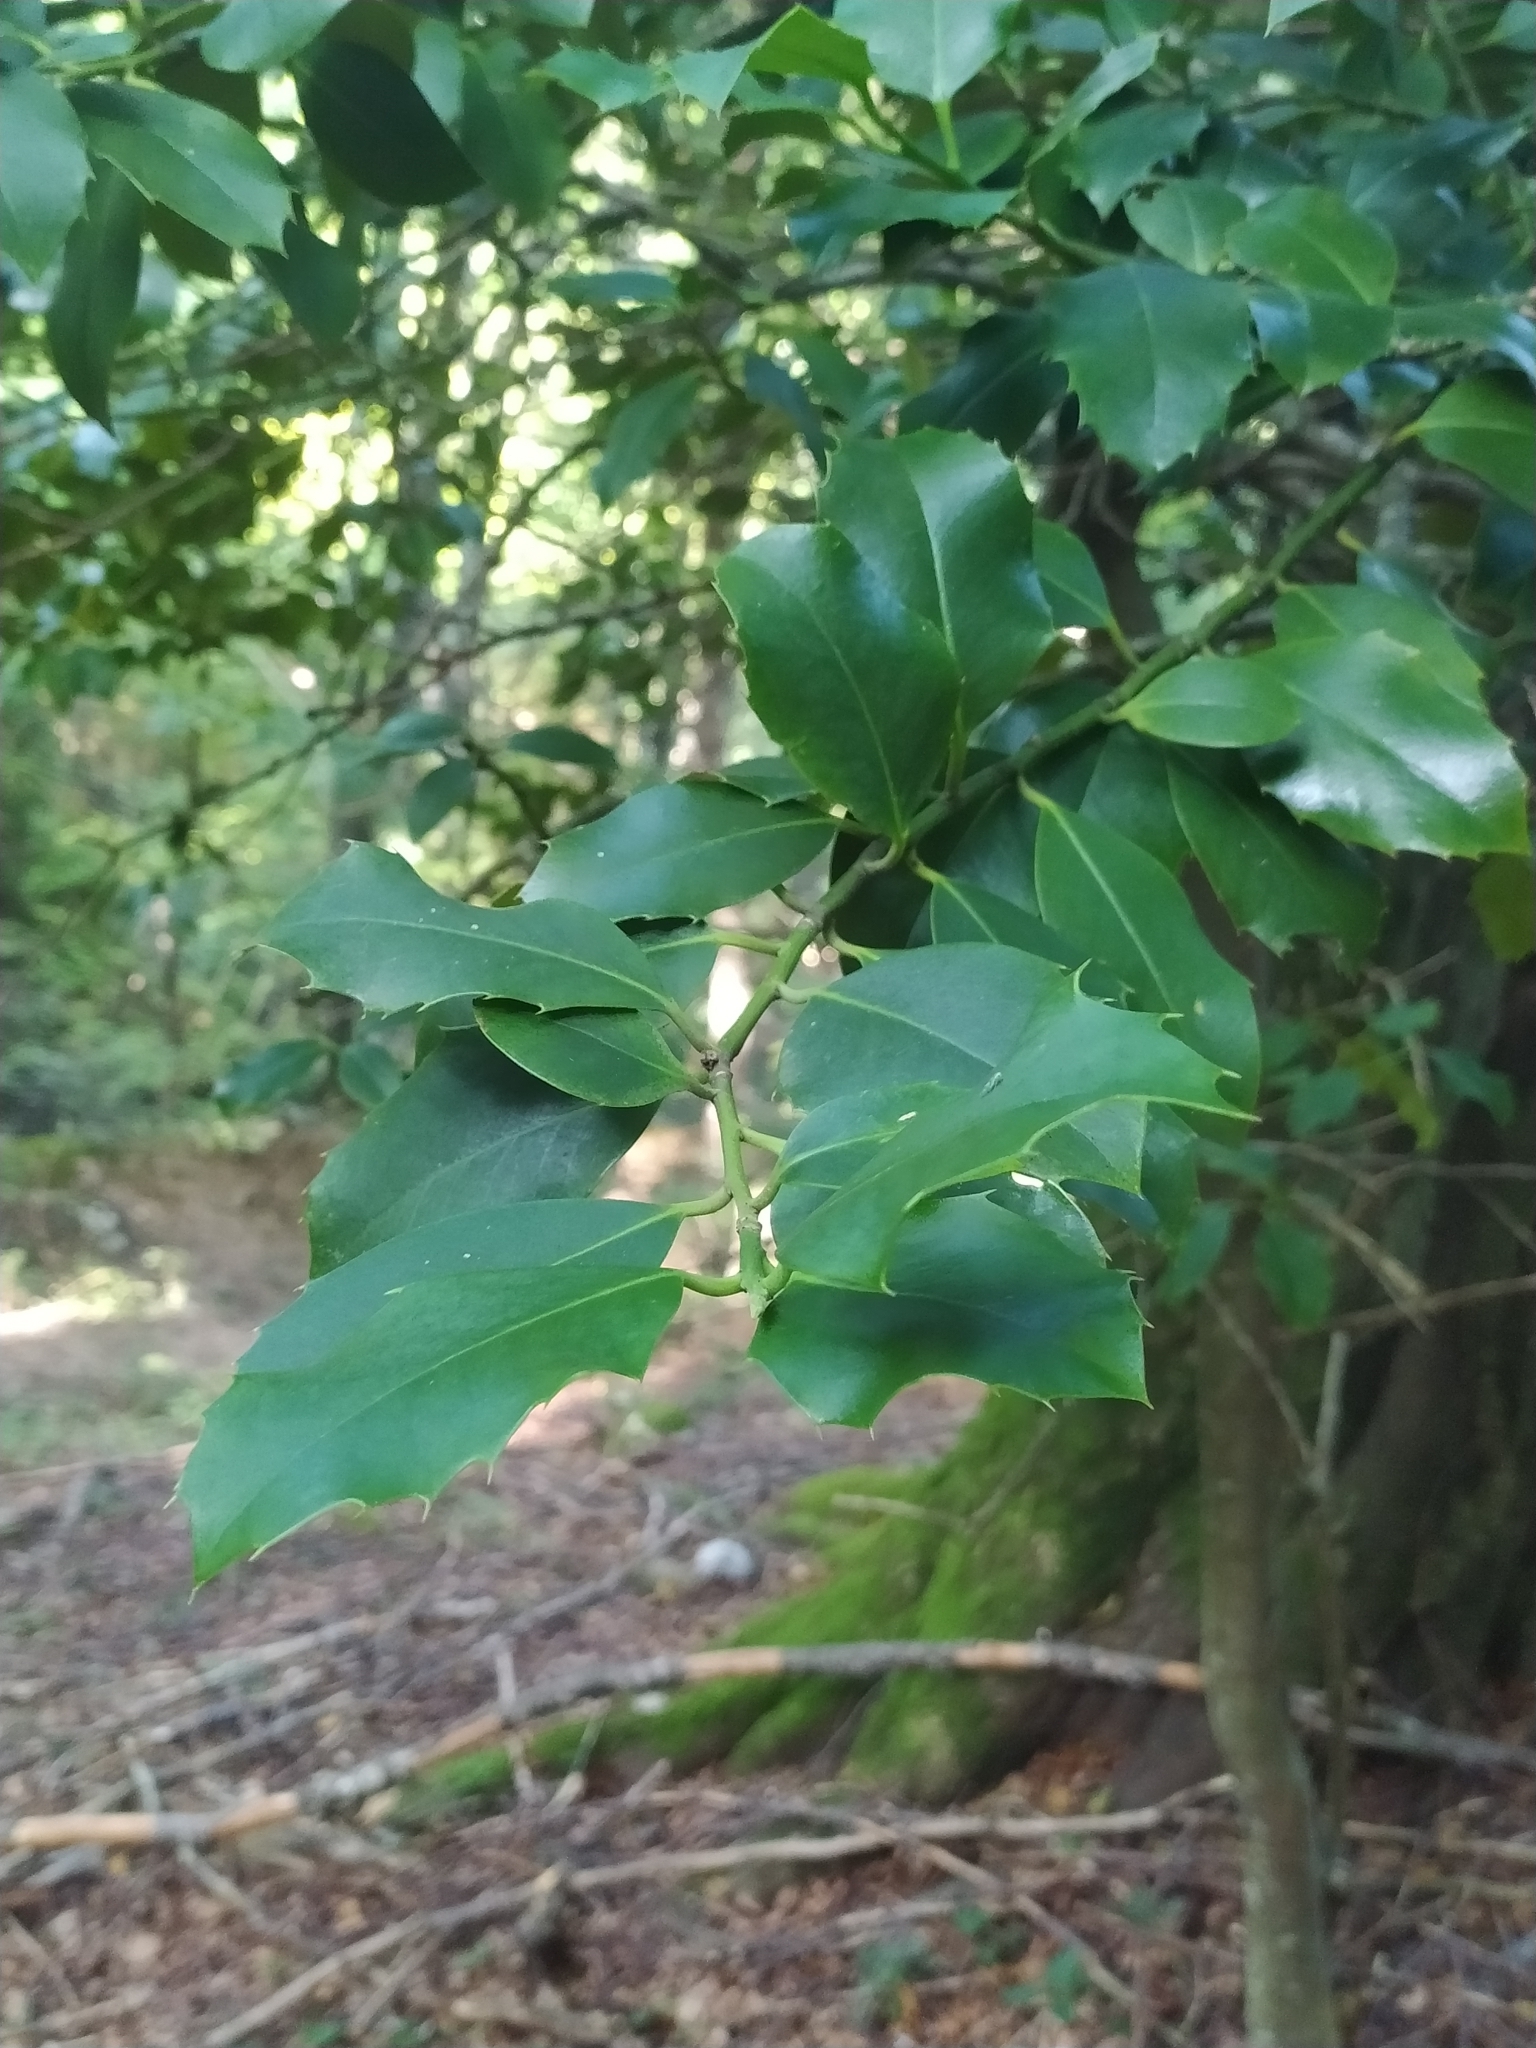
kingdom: Plantae
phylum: Tracheophyta
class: Magnoliopsida
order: Aquifoliales
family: Aquifoliaceae
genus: Ilex
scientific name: Ilex aquifolium
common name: English holly
